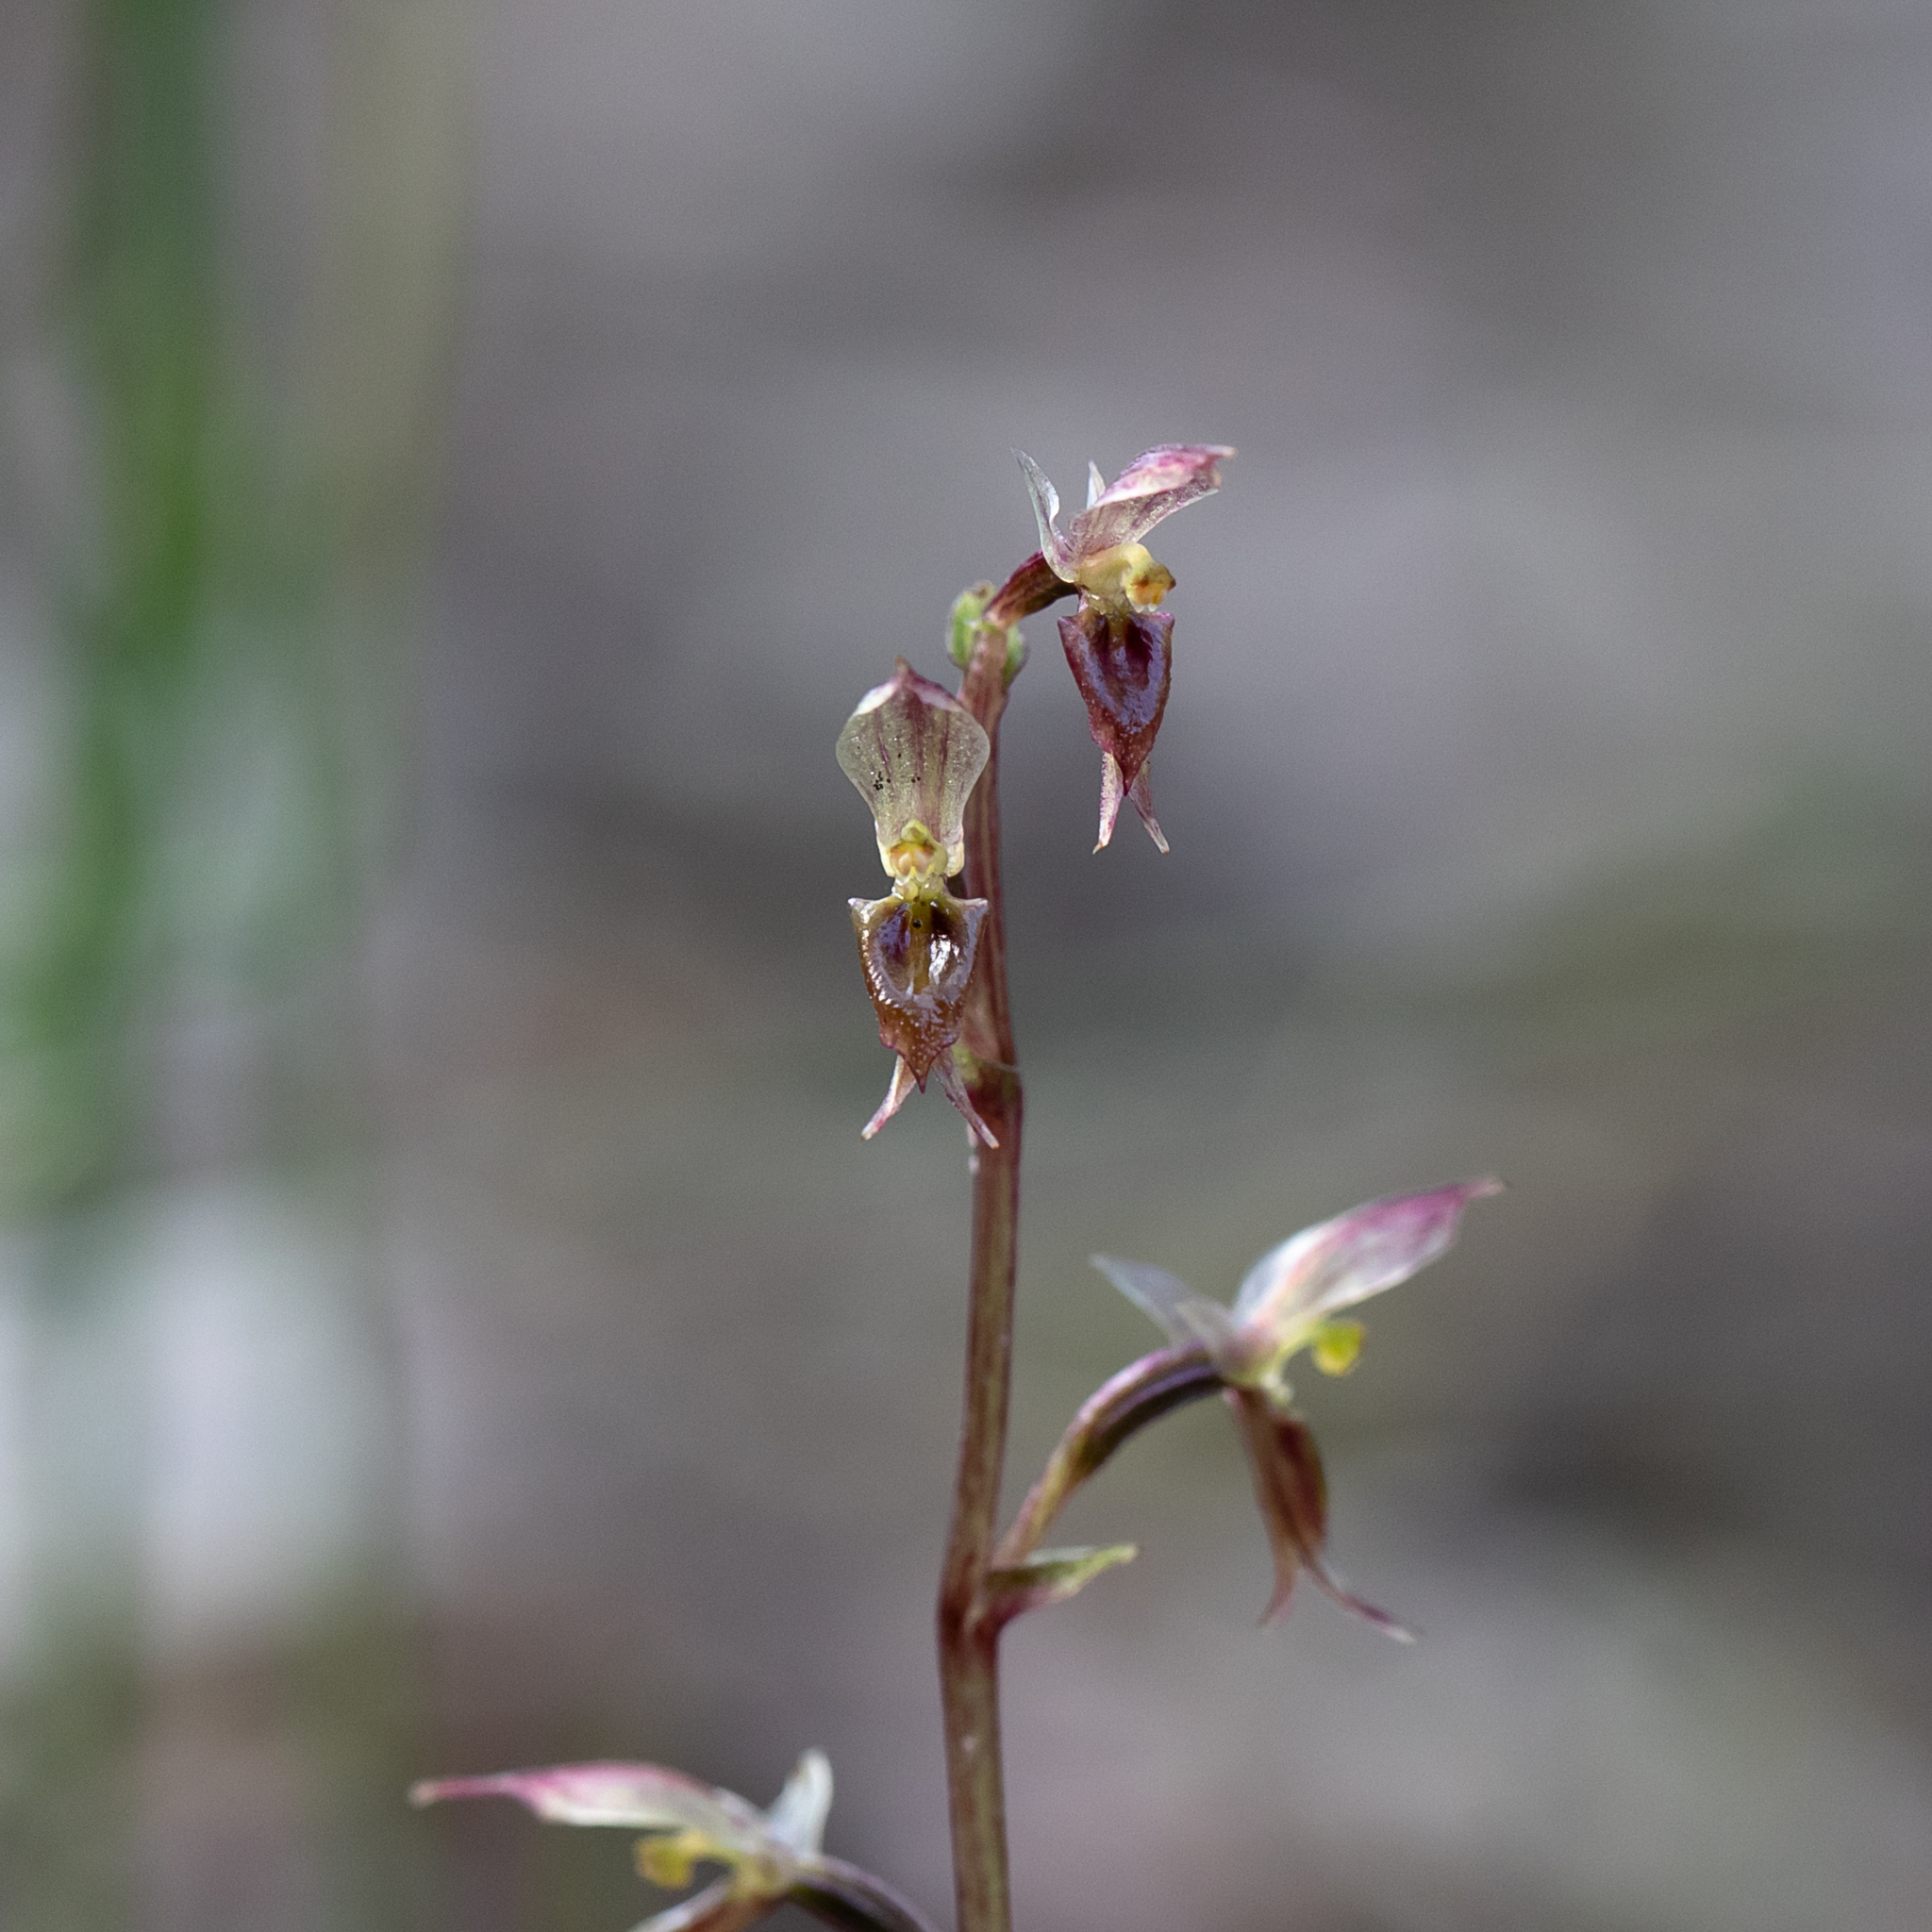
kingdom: Plantae
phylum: Tracheophyta
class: Liliopsida
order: Asparagales
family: Orchidaceae
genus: Acianthus
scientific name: Acianthus pusillus
